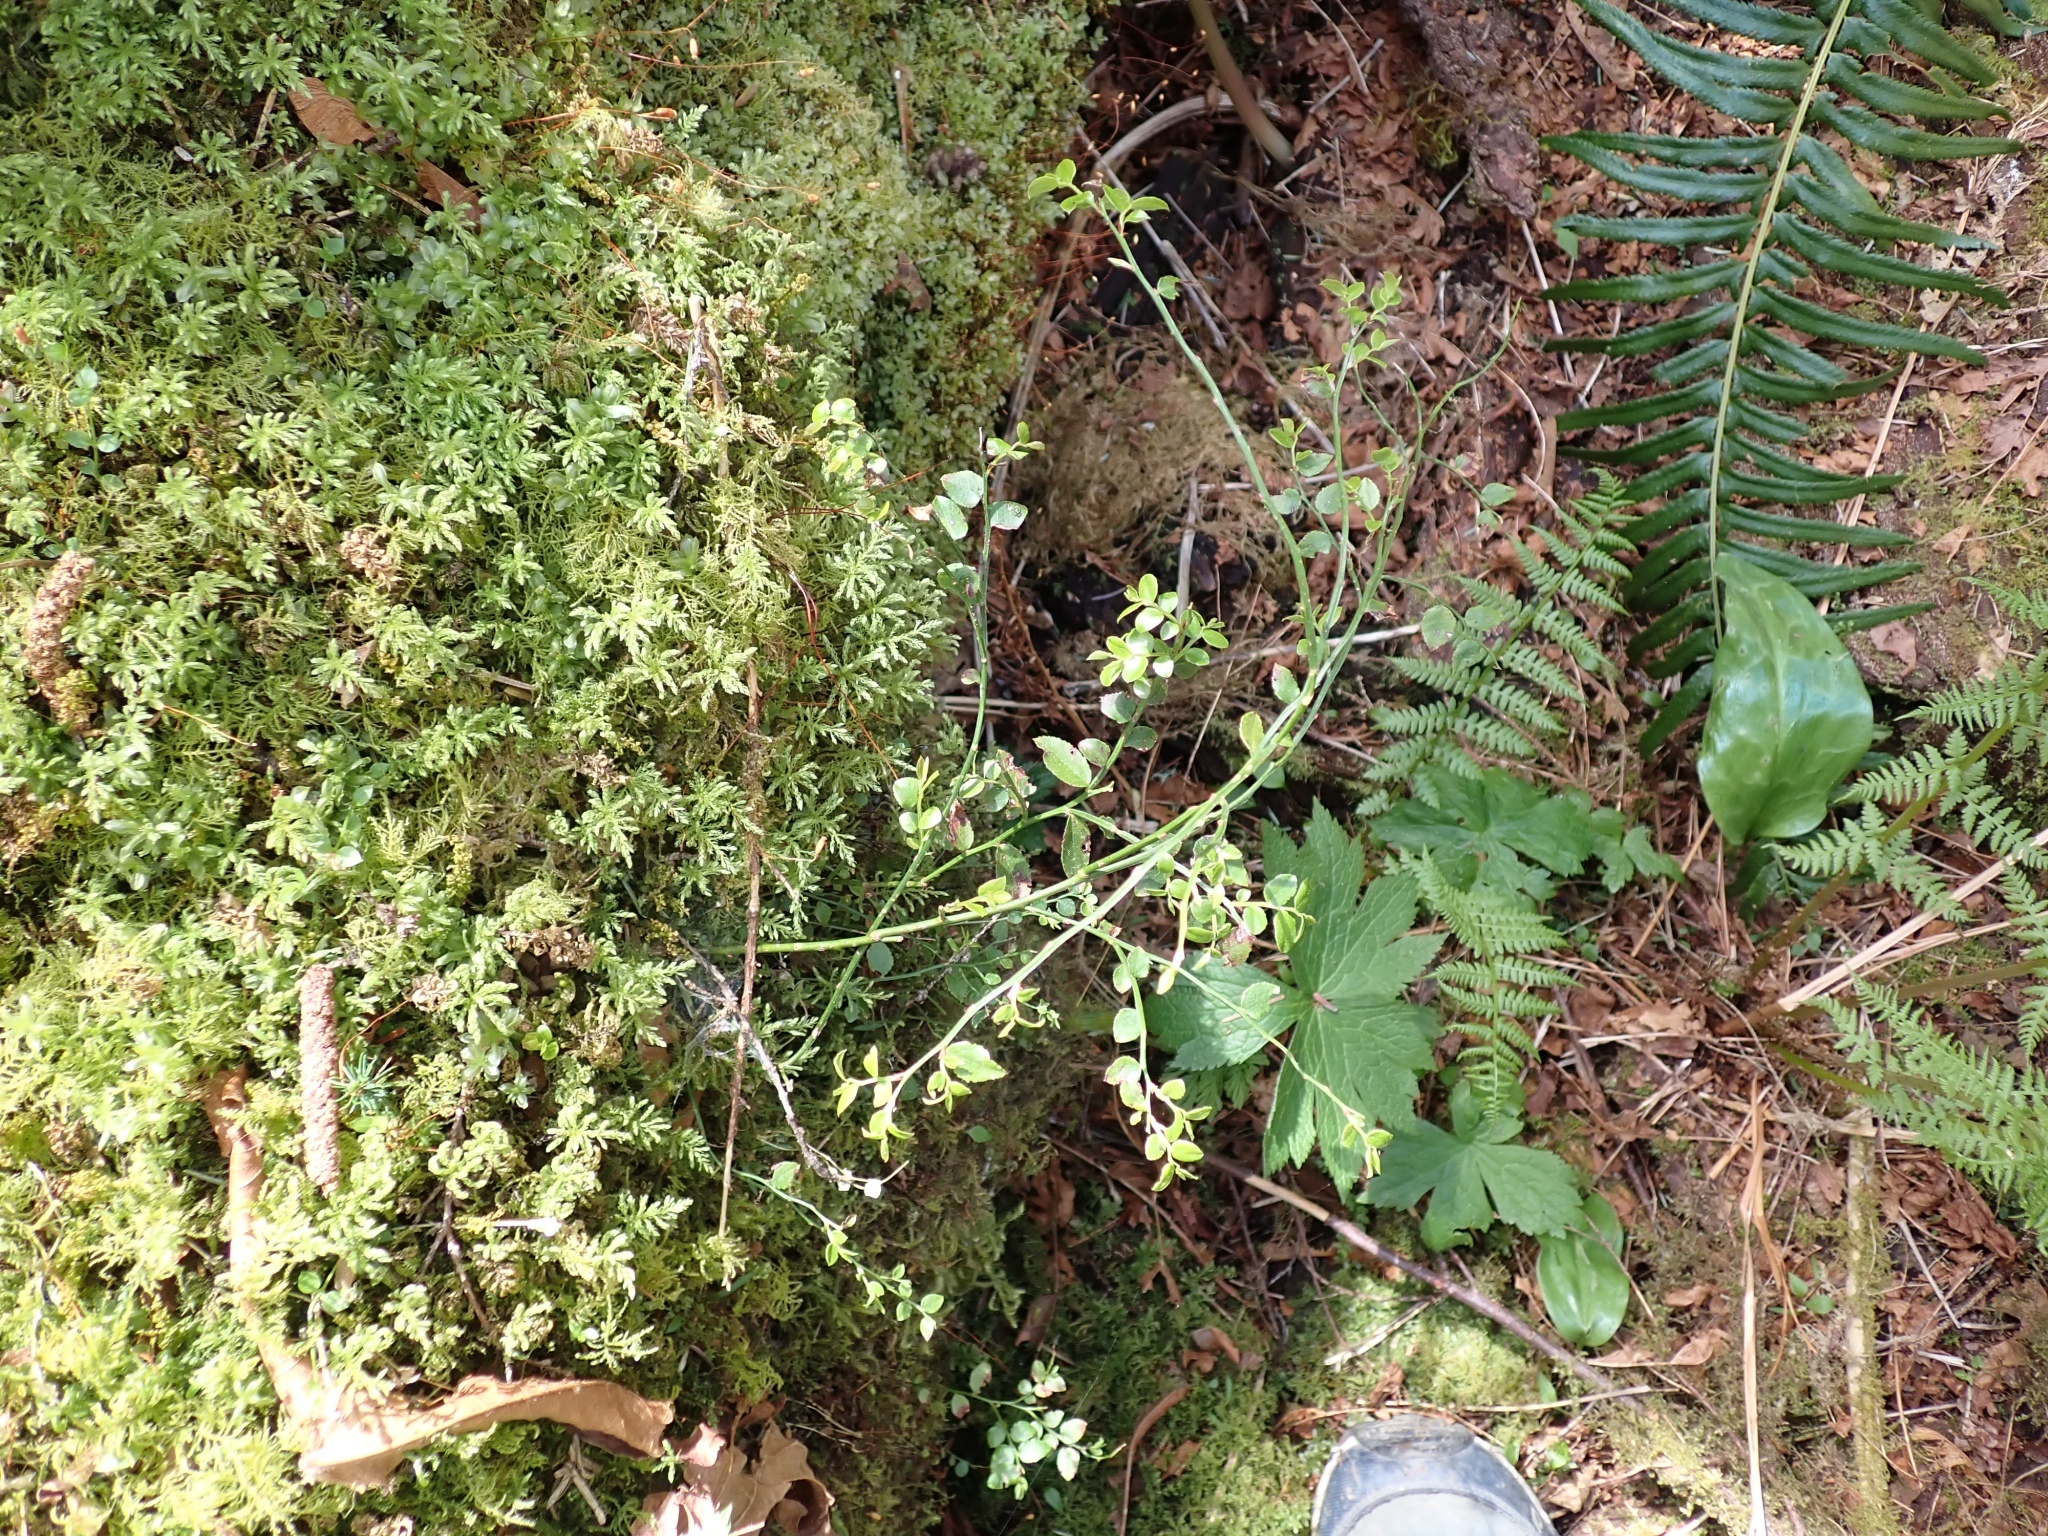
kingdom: Plantae
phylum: Tracheophyta
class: Magnoliopsida
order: Ericales
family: Ericaceae
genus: Vaccinium
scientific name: Vaccinium parvifolium
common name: Red-huckleberry
